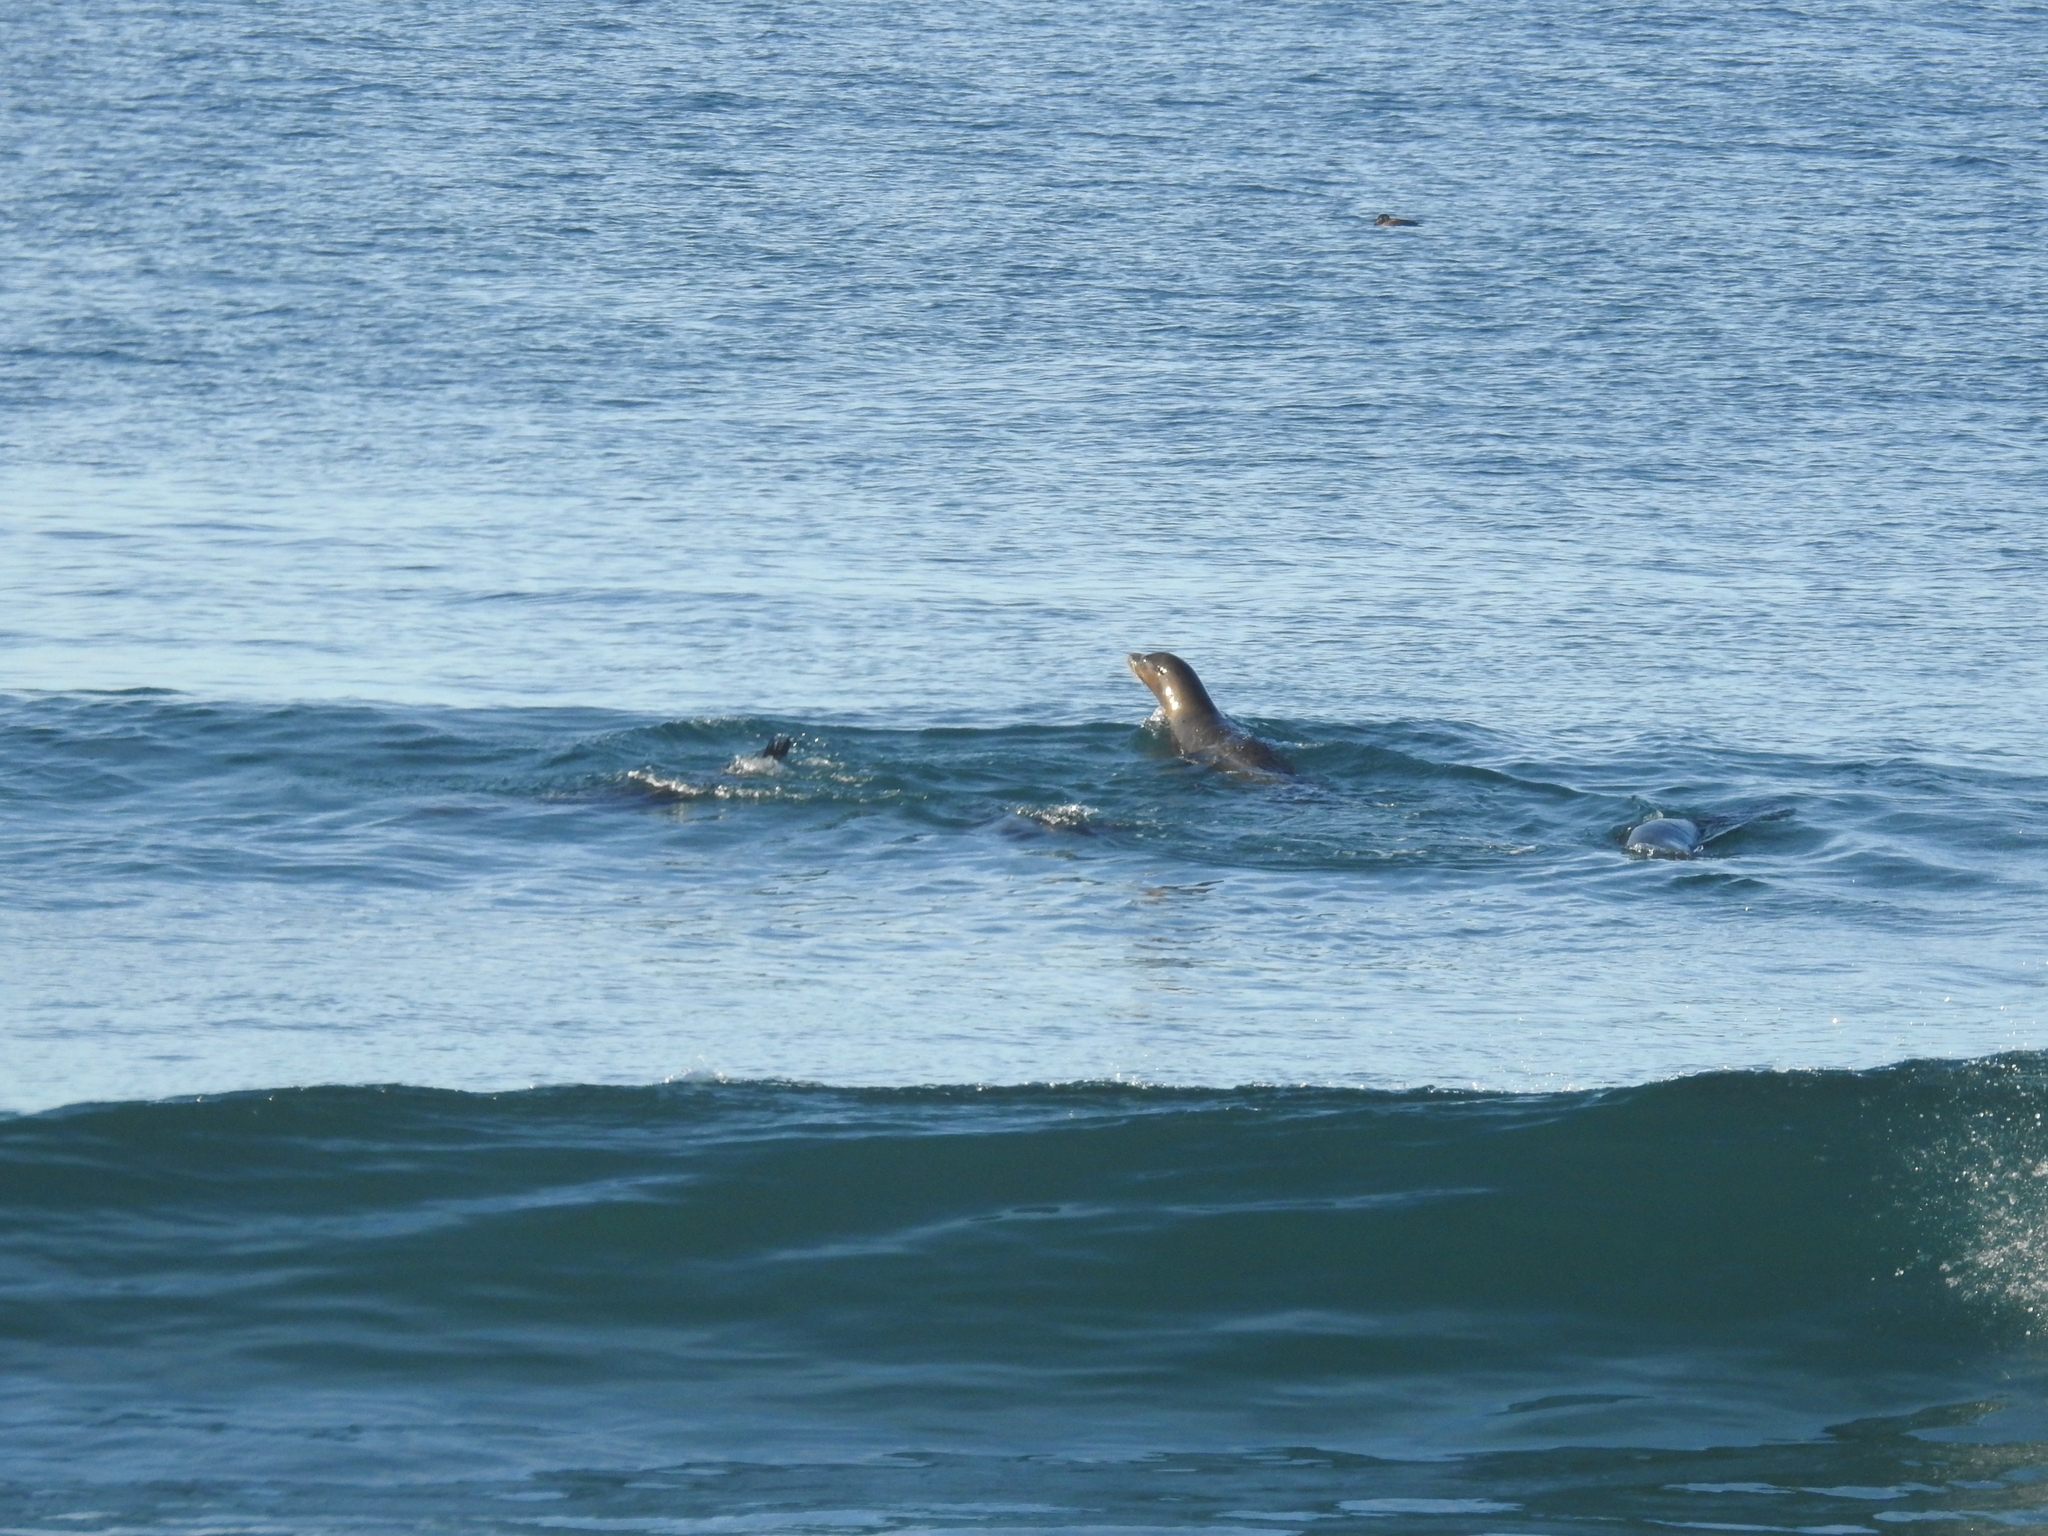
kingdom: Animalia
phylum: Chordata
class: Mammalia
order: Carnivora
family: Otariidae
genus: Zalophus
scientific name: Zalophus californianus
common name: California sea lion
